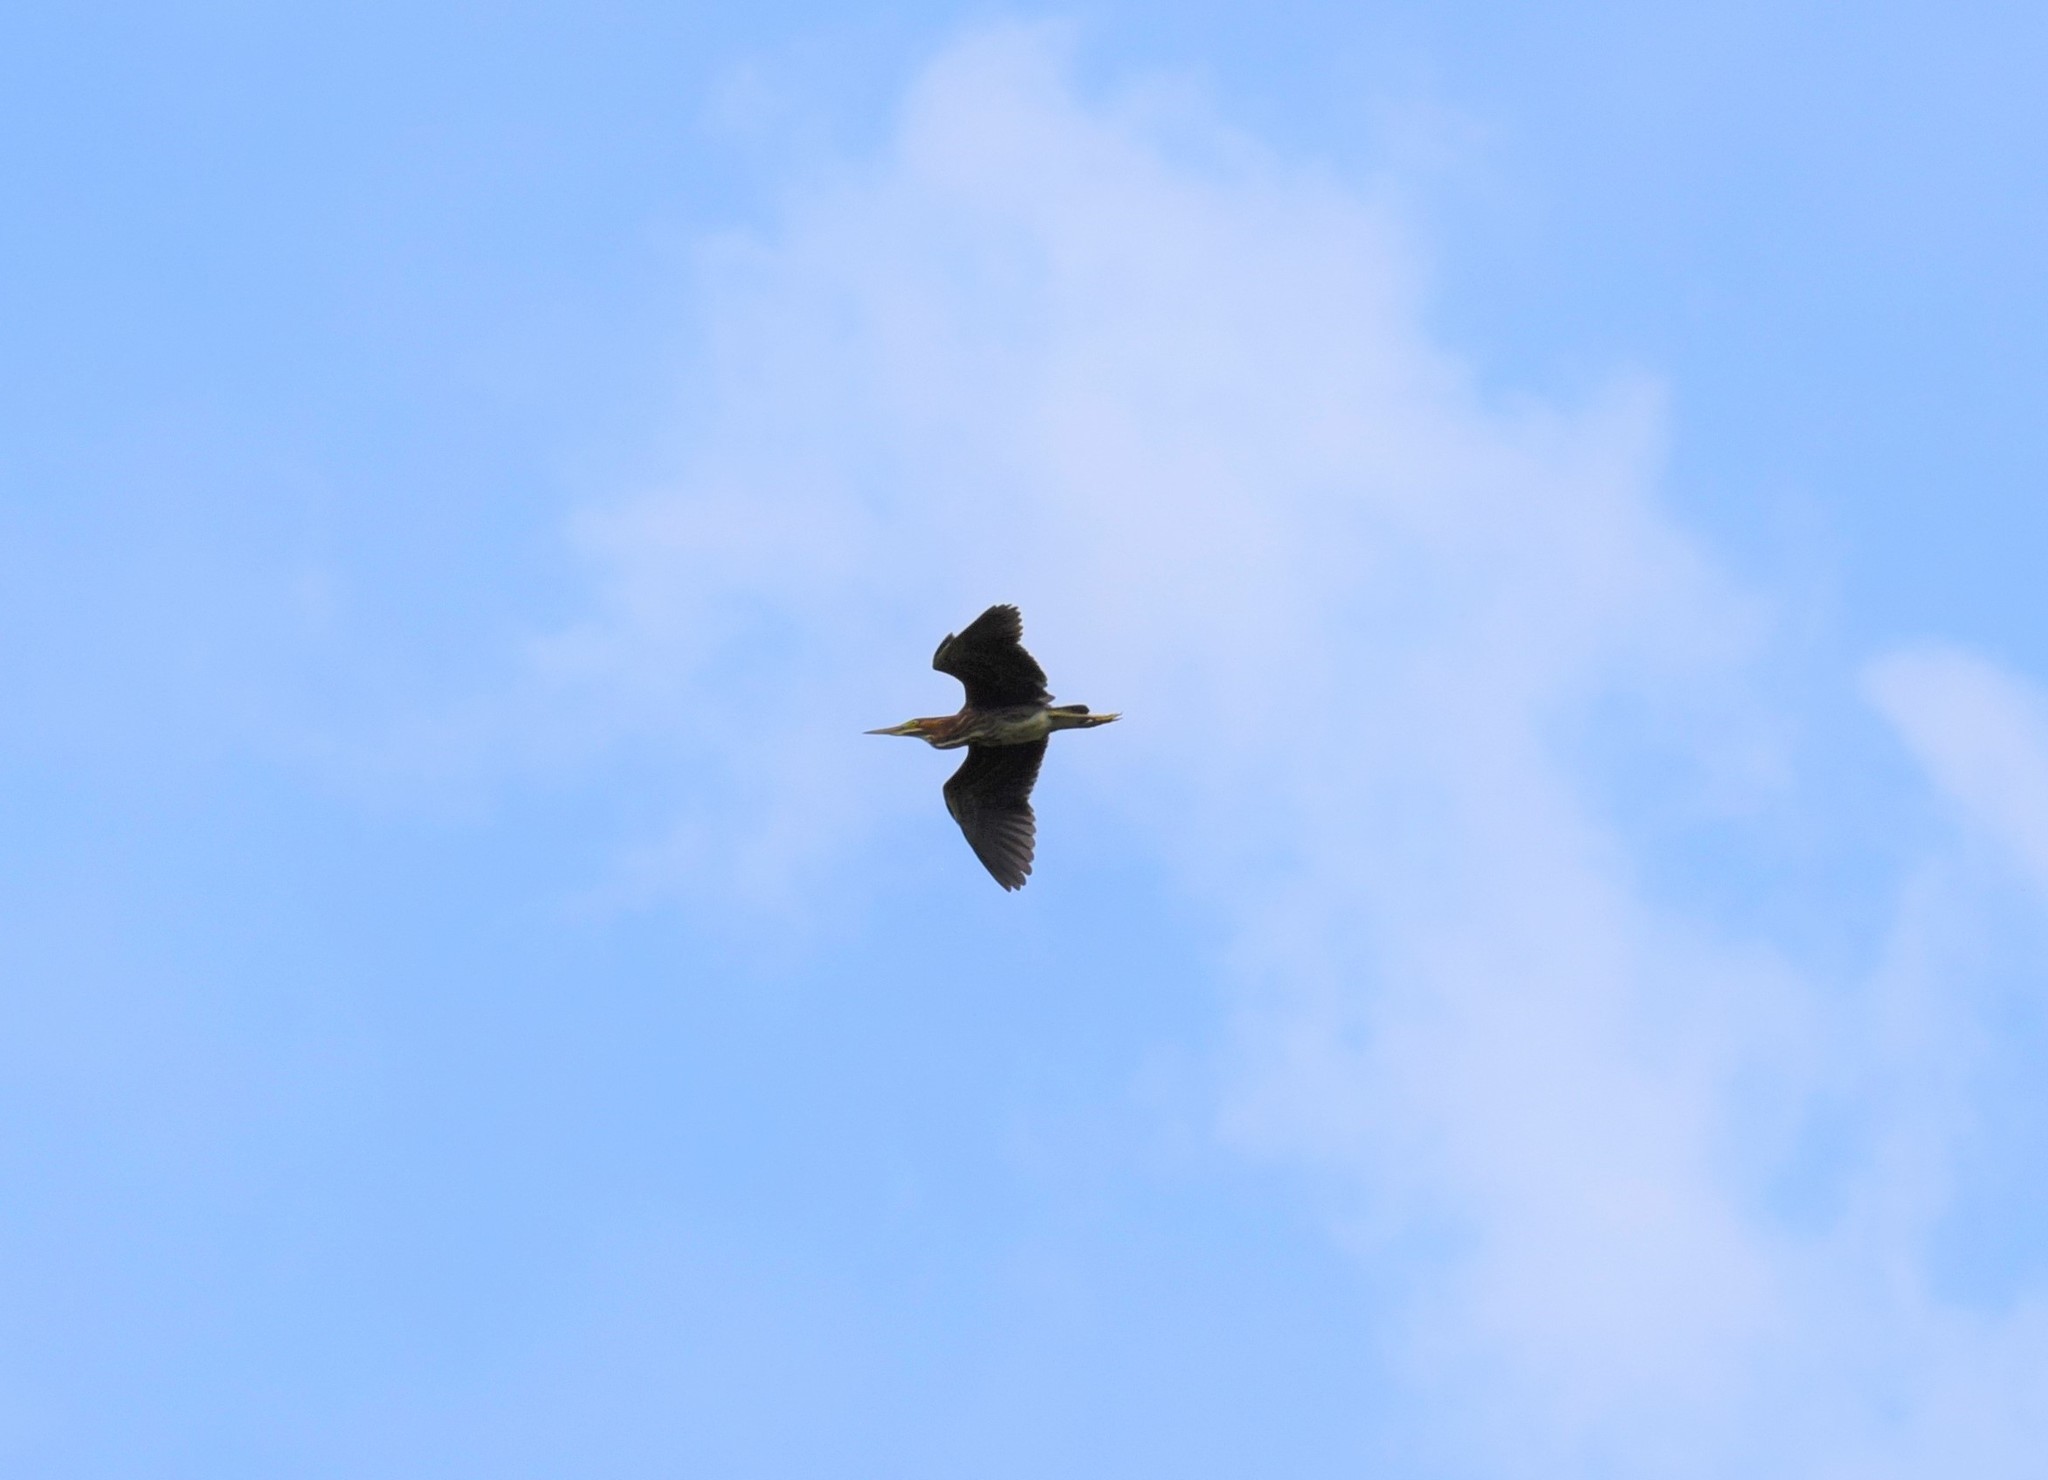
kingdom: Animalia
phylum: Chordata
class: Aves
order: Pelecaniformes
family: Ardeidae
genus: Butorides
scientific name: Butorides virescens
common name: Green heron
